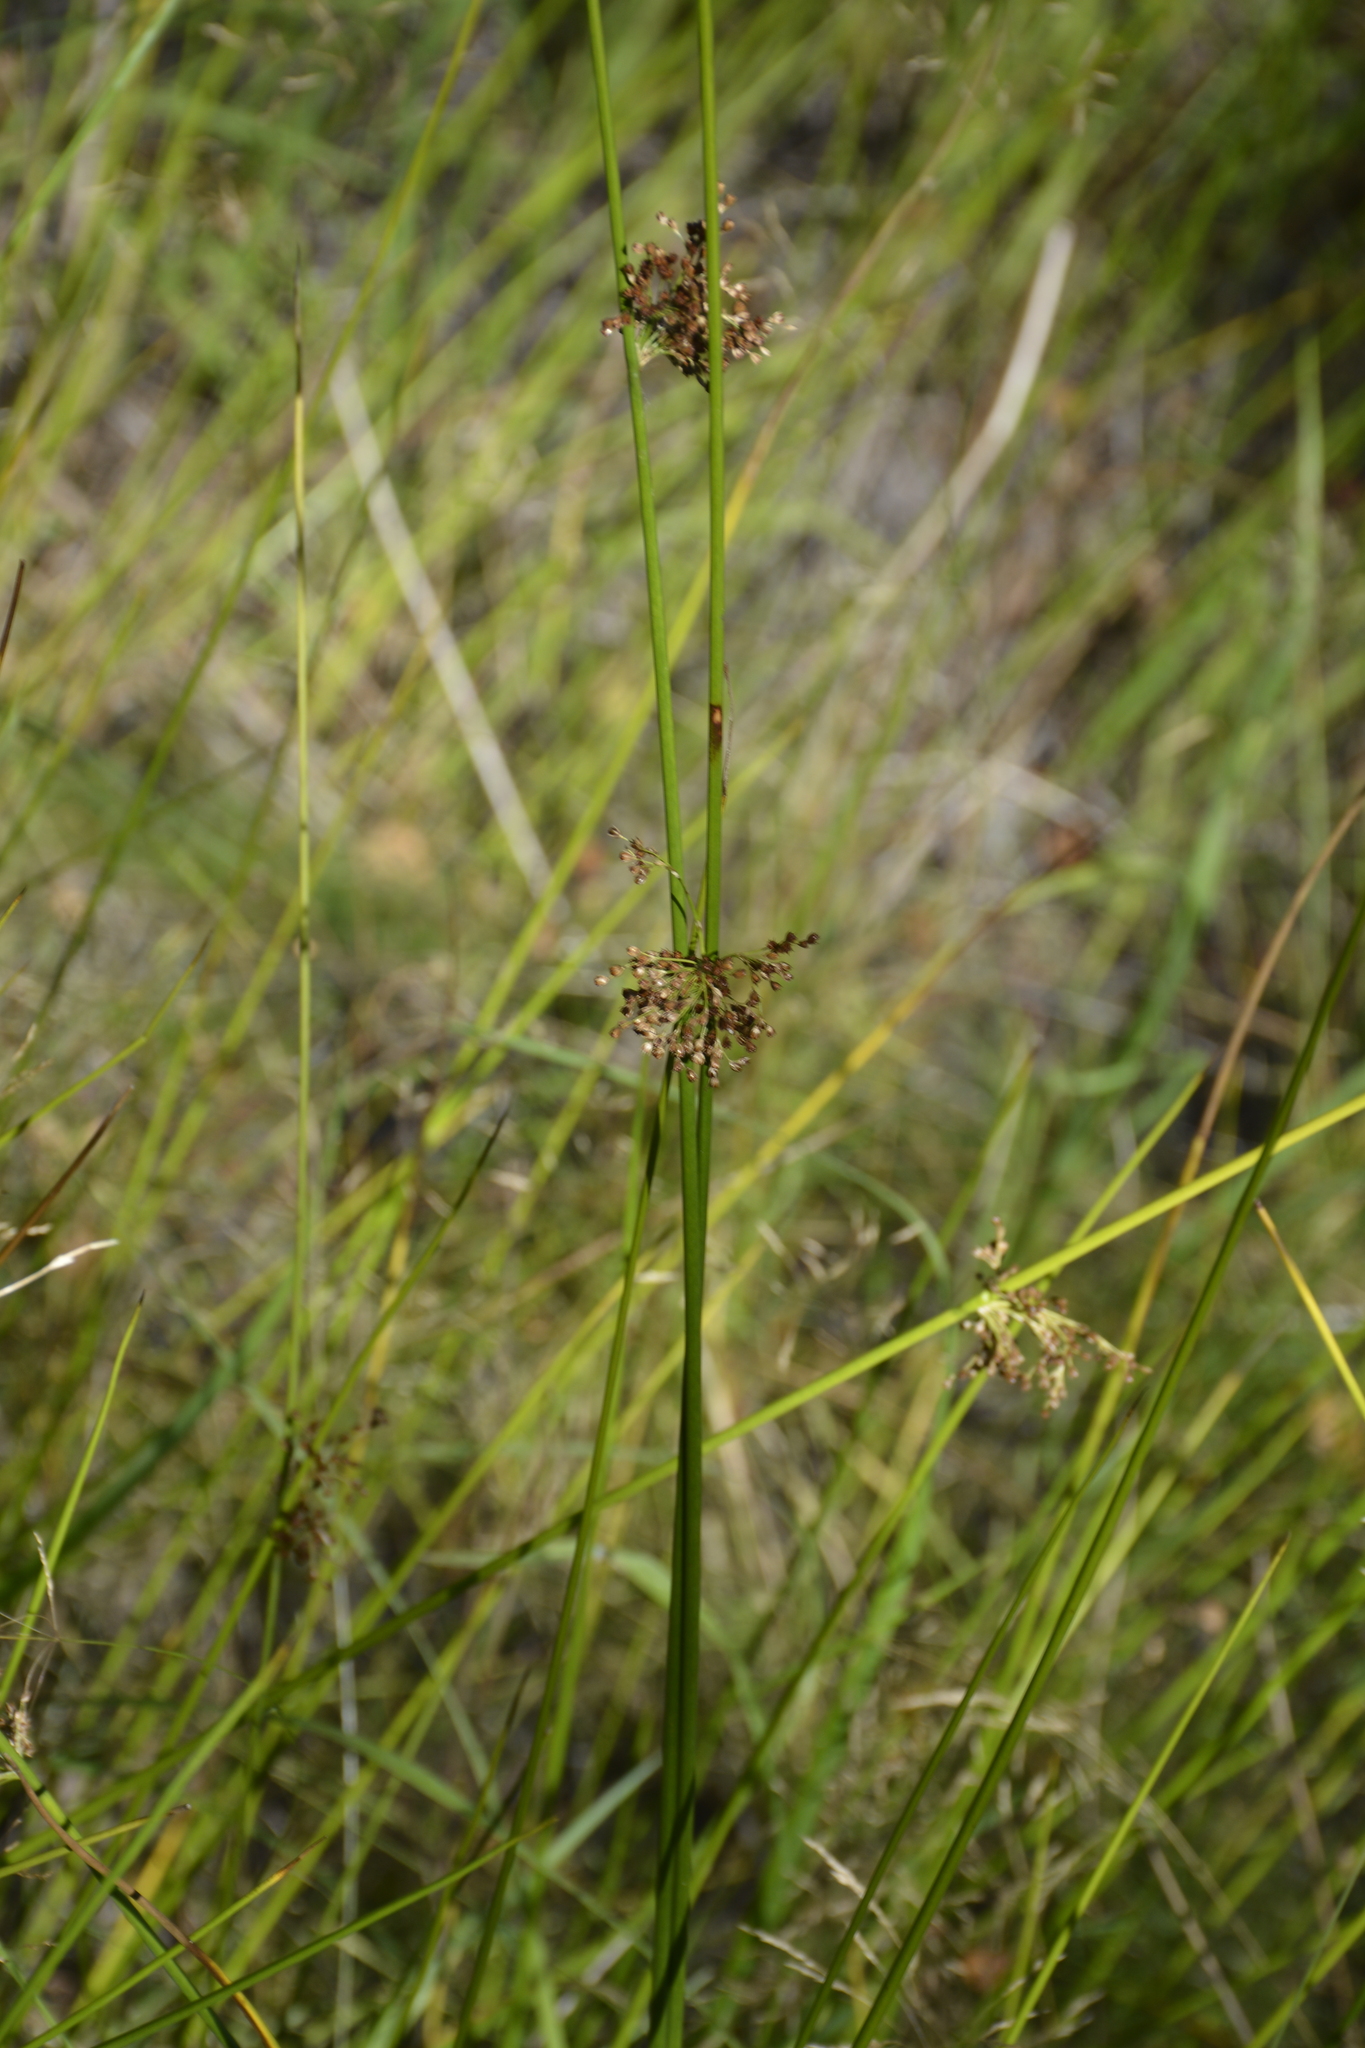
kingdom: Plantae
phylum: Tracheophyta
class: Liliopsida
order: Poales
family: Juncaceae
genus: Juncus
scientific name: Juncus effusus
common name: Soft rush
